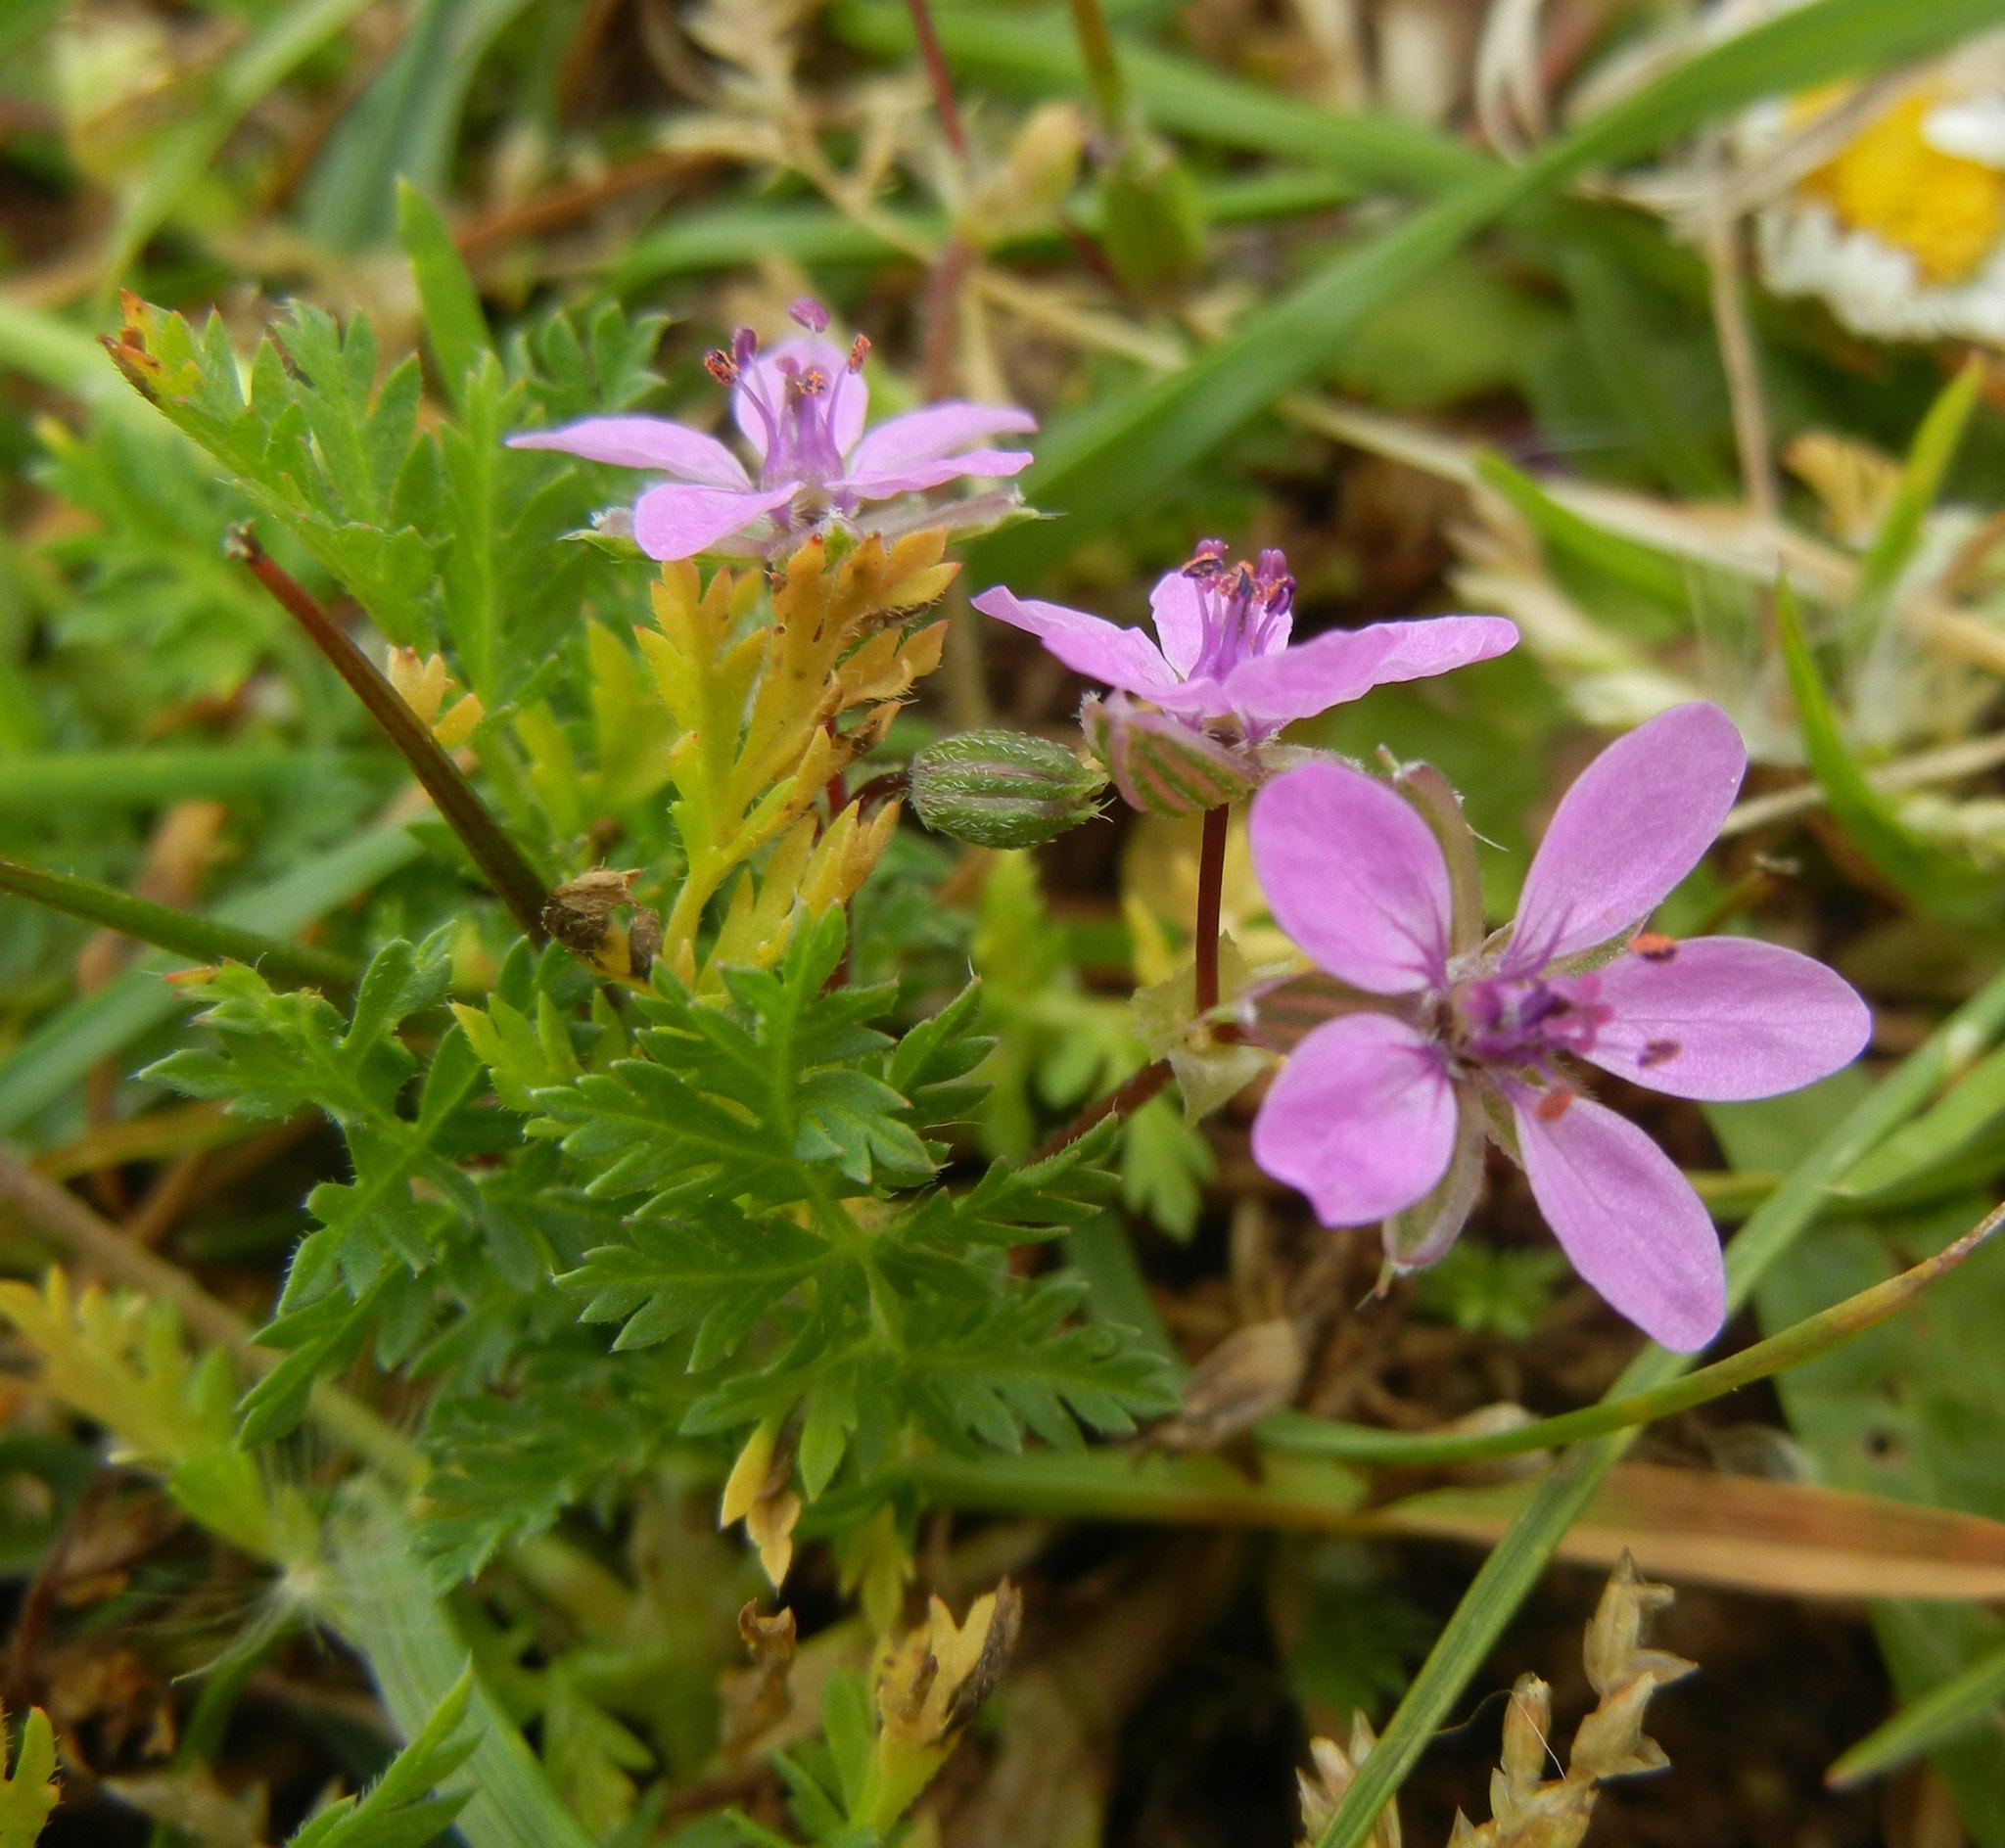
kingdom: Plantae
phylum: Tracheophyta
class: Magnoliopsida
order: Geraniales
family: Geraniaceae
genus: Erodium
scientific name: Erodium cicutarium
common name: Common stork's-bill
